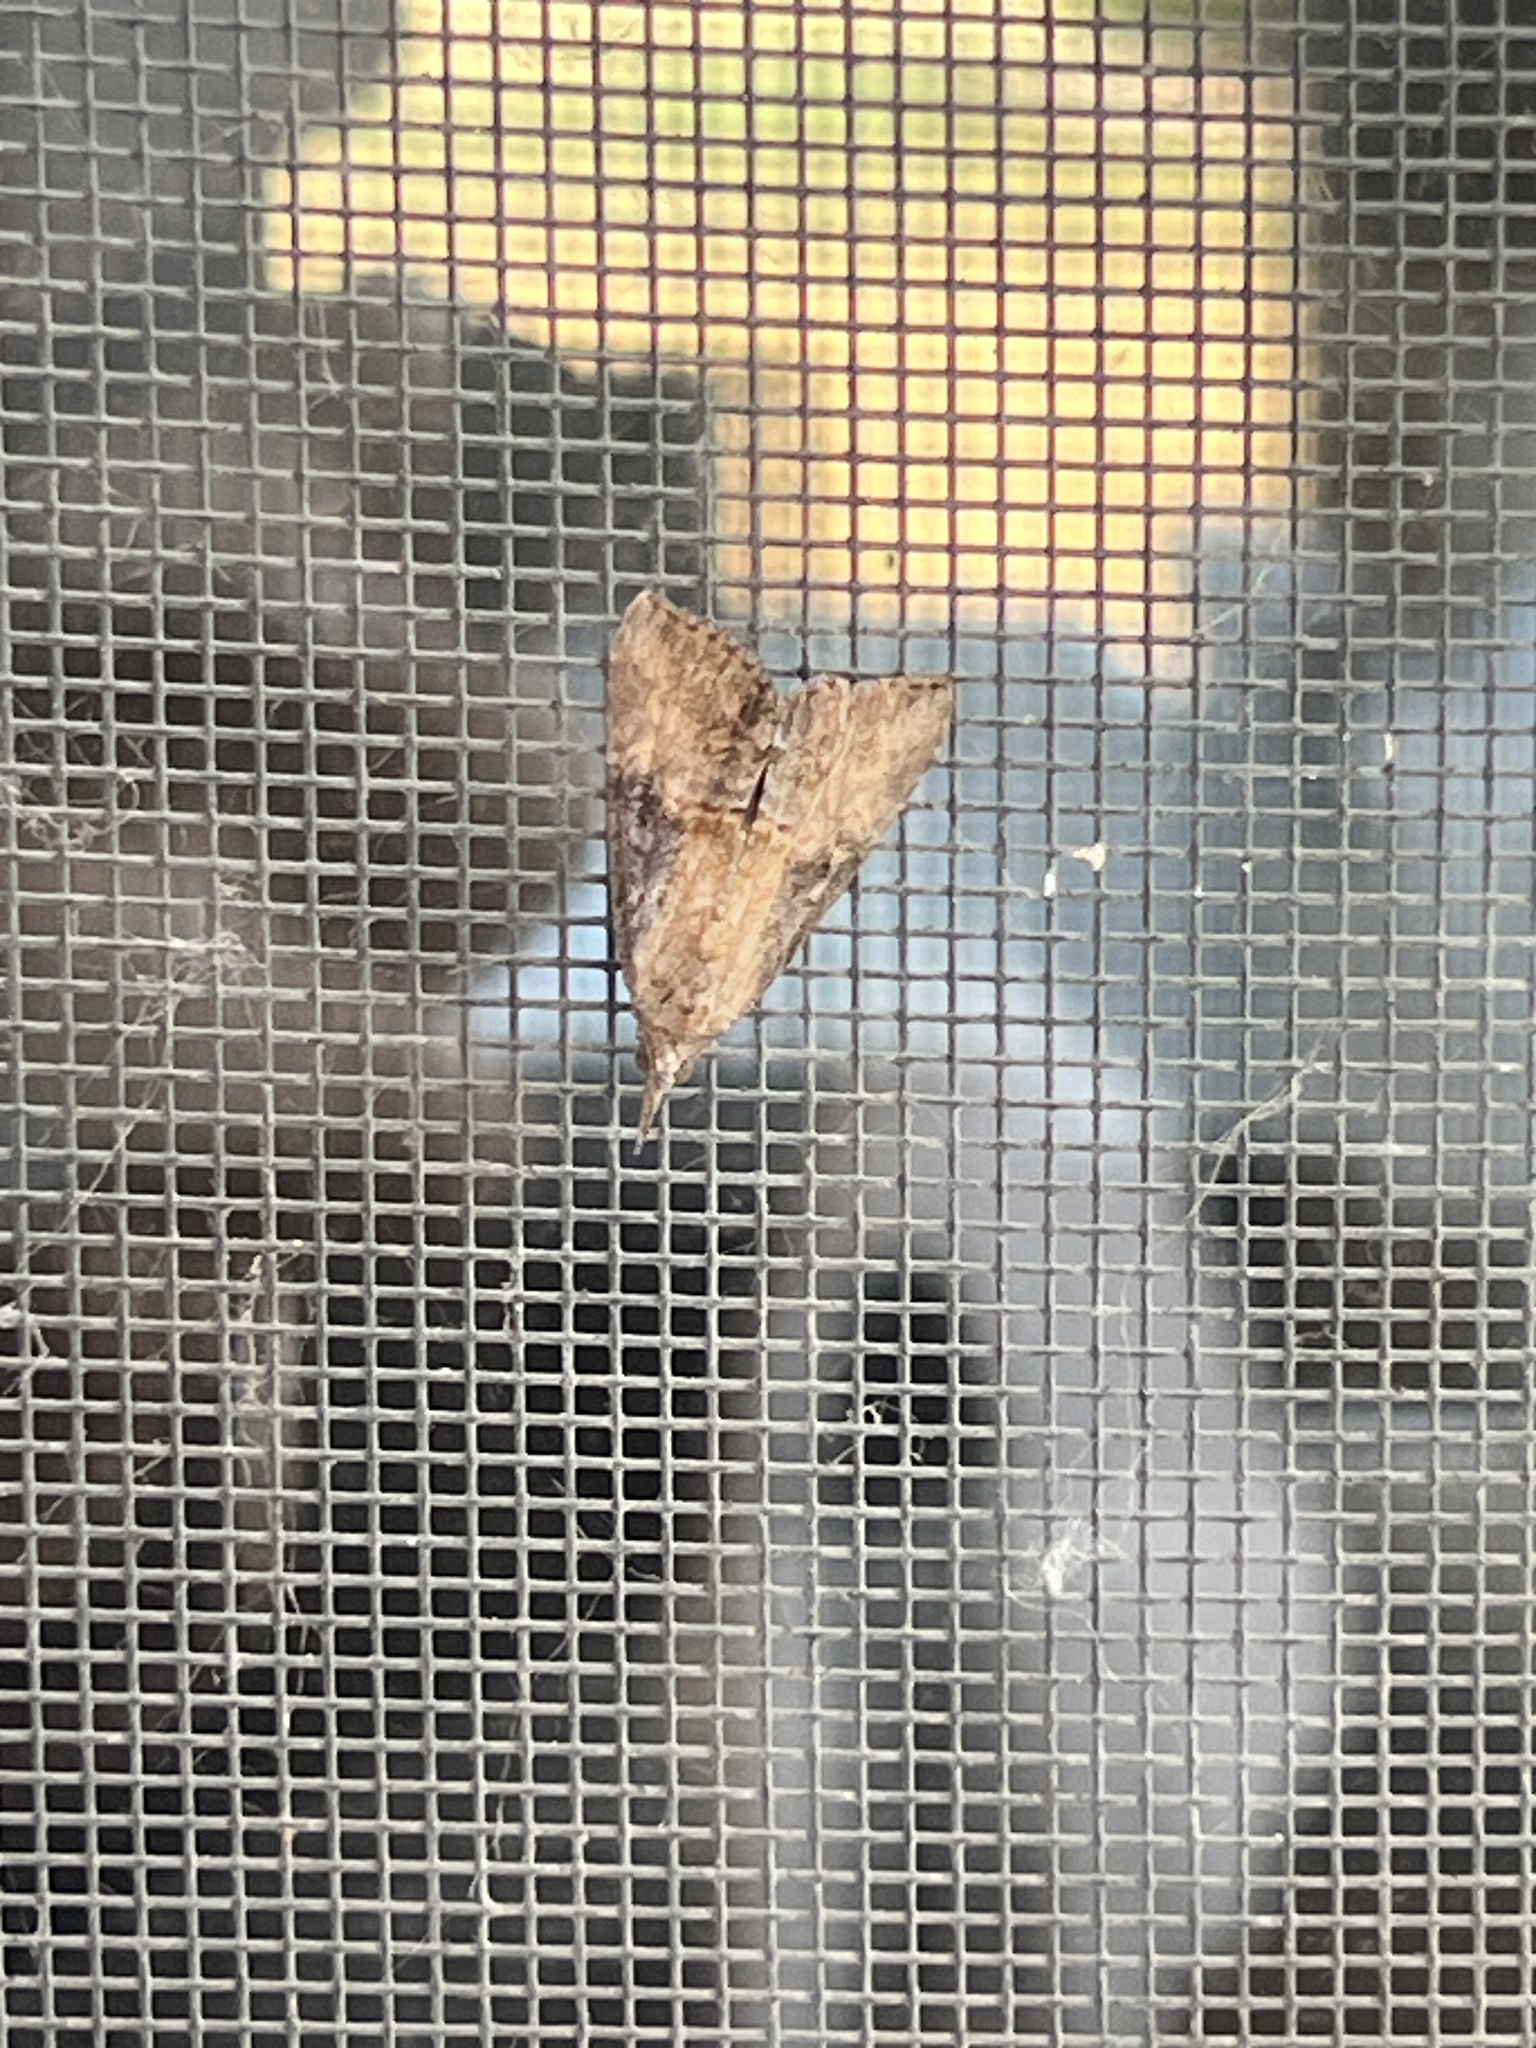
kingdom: Animalia
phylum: Arthropoda
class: Insecta
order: Lepidoptera
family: Erebidae
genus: Hypena
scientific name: Hypena scabra
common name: Green cloverworm
